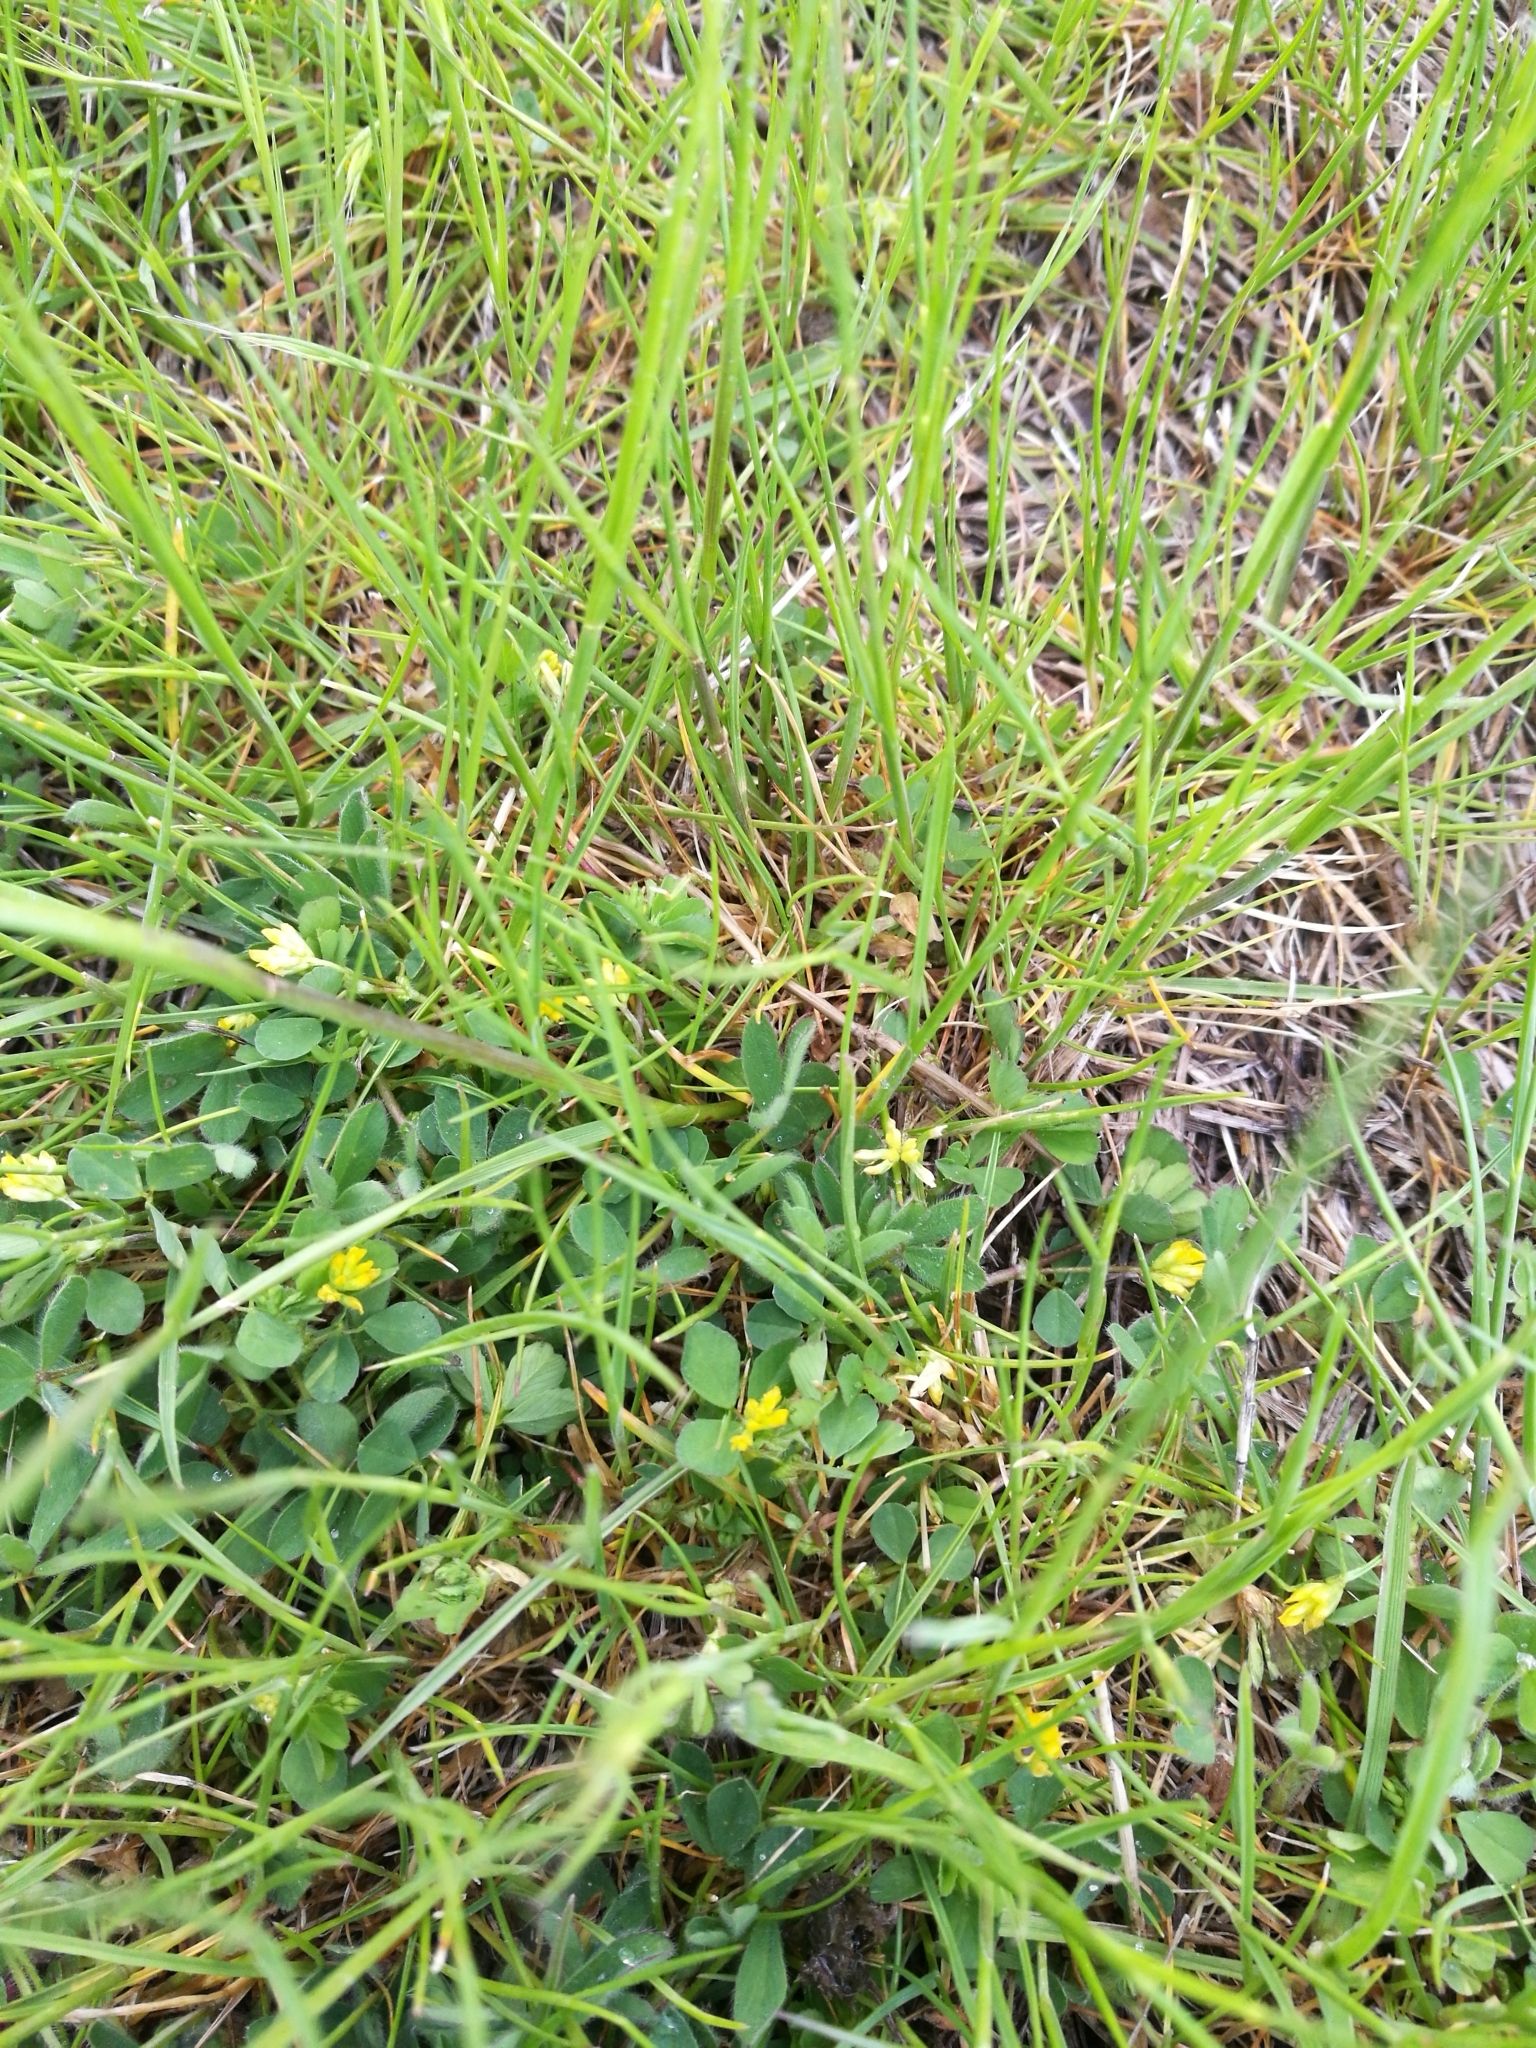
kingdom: Plantae
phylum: Tracheophyta
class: Magnoliopsida
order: Fabales
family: Fabaceae
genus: Trifolium
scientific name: Trifolium dubium
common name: Suckling clover
